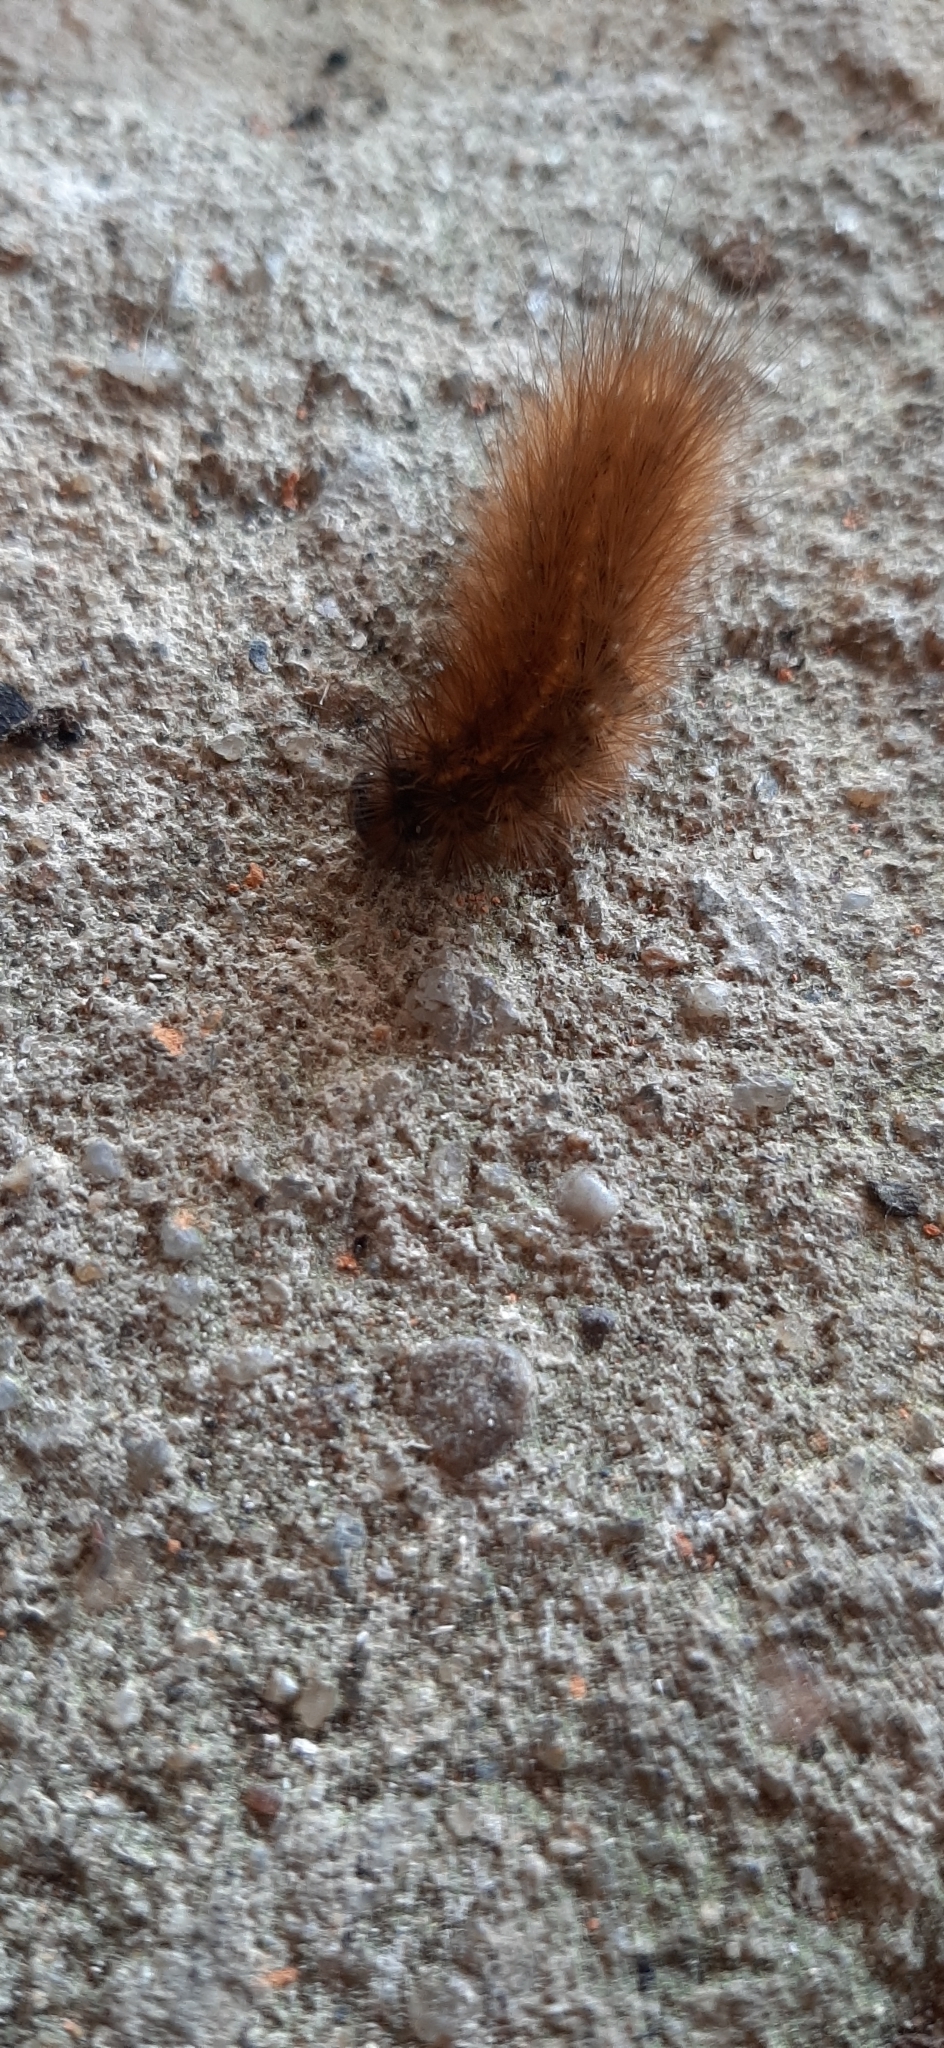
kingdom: Animalia
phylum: Arthropoda
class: Insecta
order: Lepidoptera
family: Erebidae
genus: Phragmatobia
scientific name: Phragmatobia fuliginosa
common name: Ruby tiger
